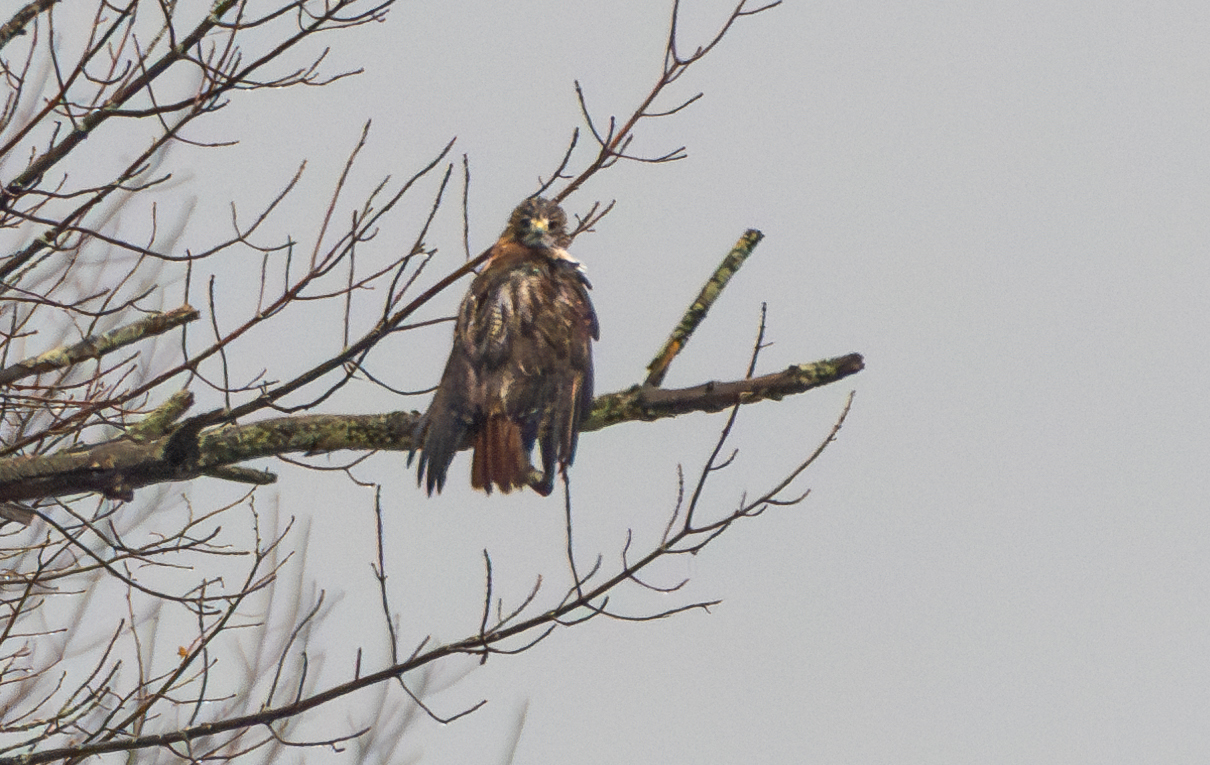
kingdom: Animalia
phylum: Chordata
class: Aves
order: Accipitriformes
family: Accipitridae
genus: Buteo
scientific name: Buteo jamaicensis
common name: Red-tailed hawk
